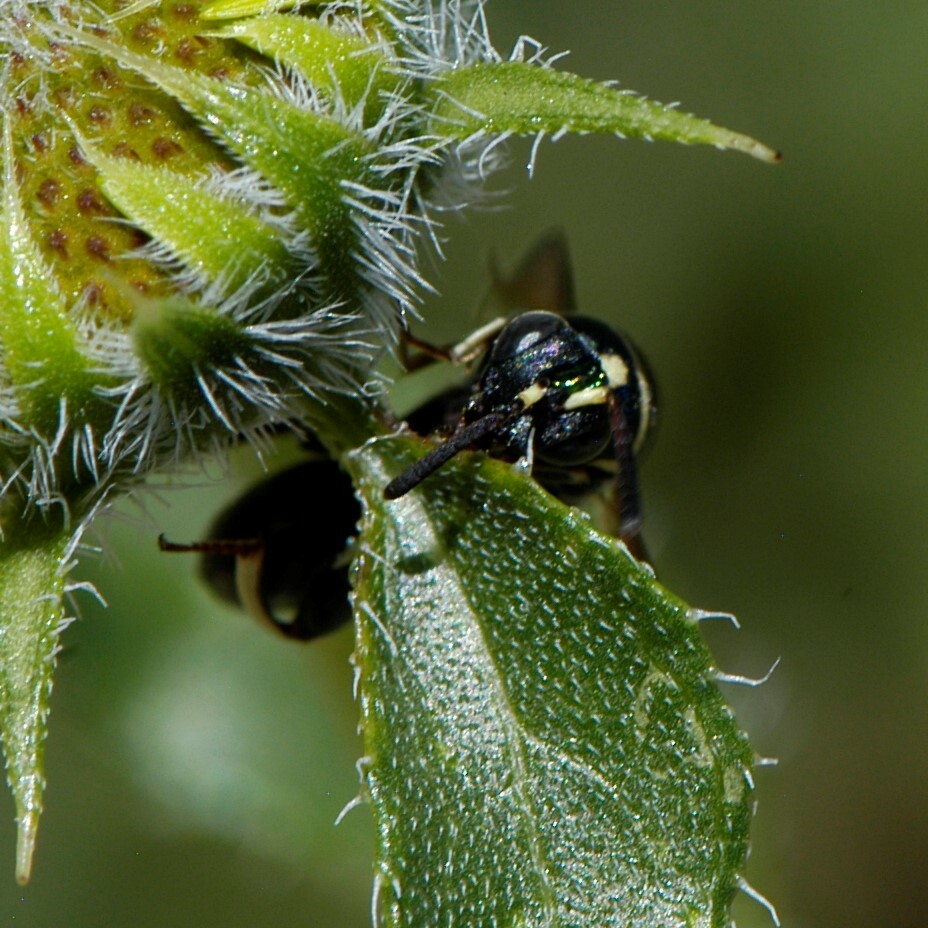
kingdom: Animalia
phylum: Arthropoda
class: Insecta
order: Hymenoptera
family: Leucospidae
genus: Leucospis
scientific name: Leucospis birkmani
